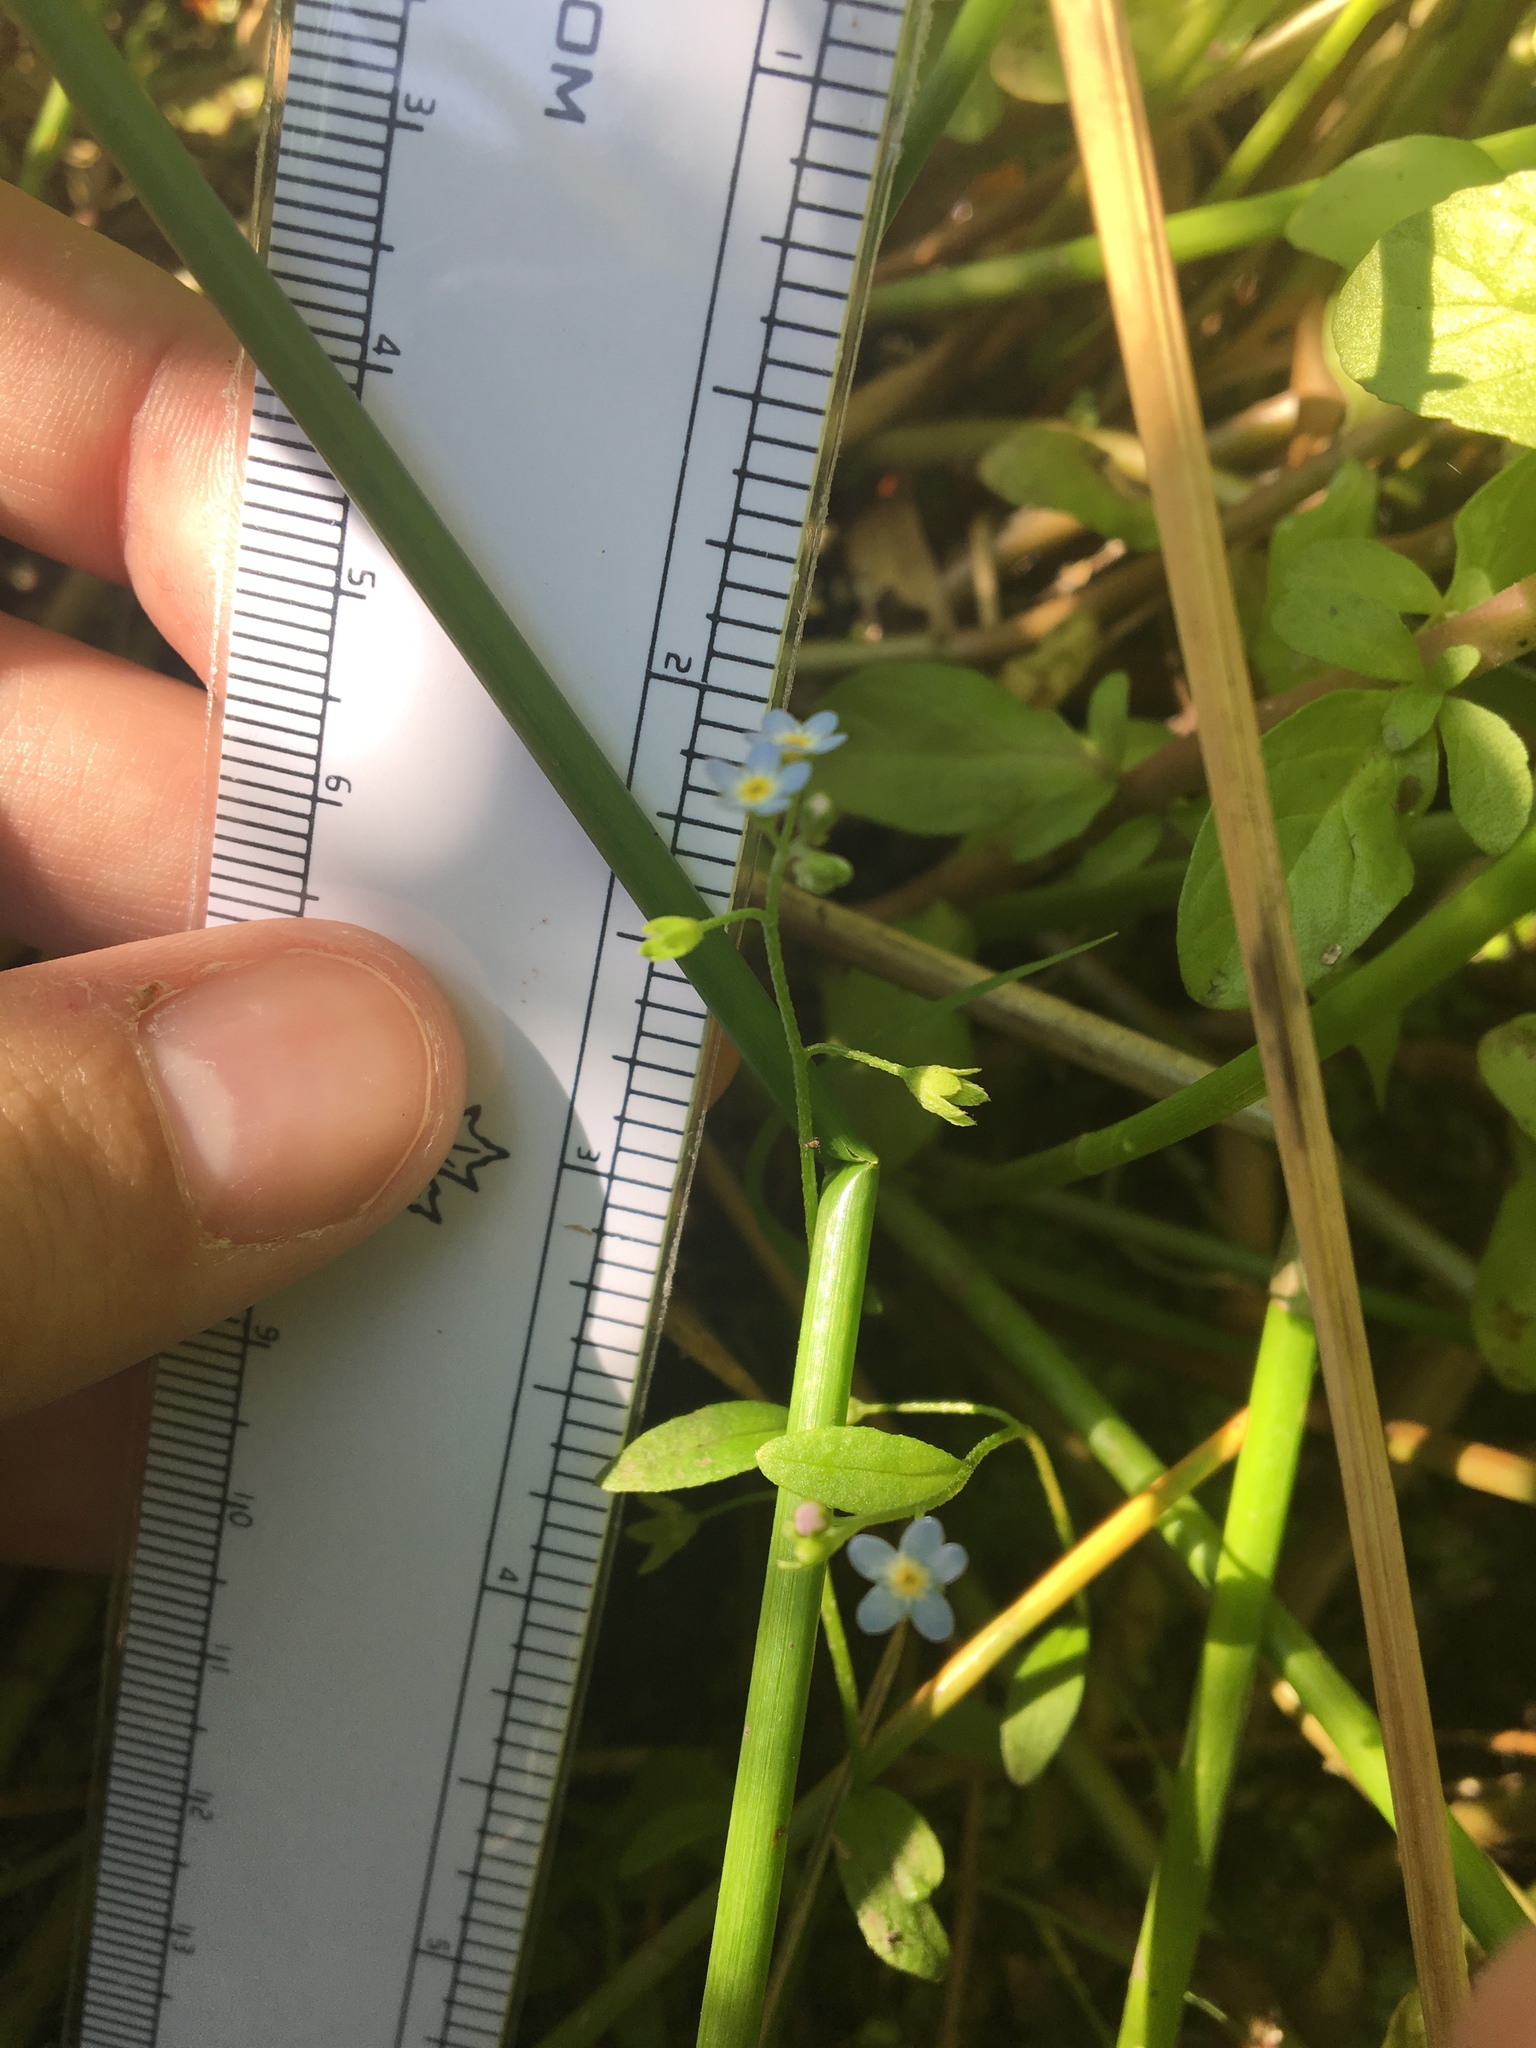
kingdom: Plantae
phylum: Tracheophyta
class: Magnoliopsida
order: Boraginales
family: Boraginaceae
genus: Myosotis
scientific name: Myosotis laxa
